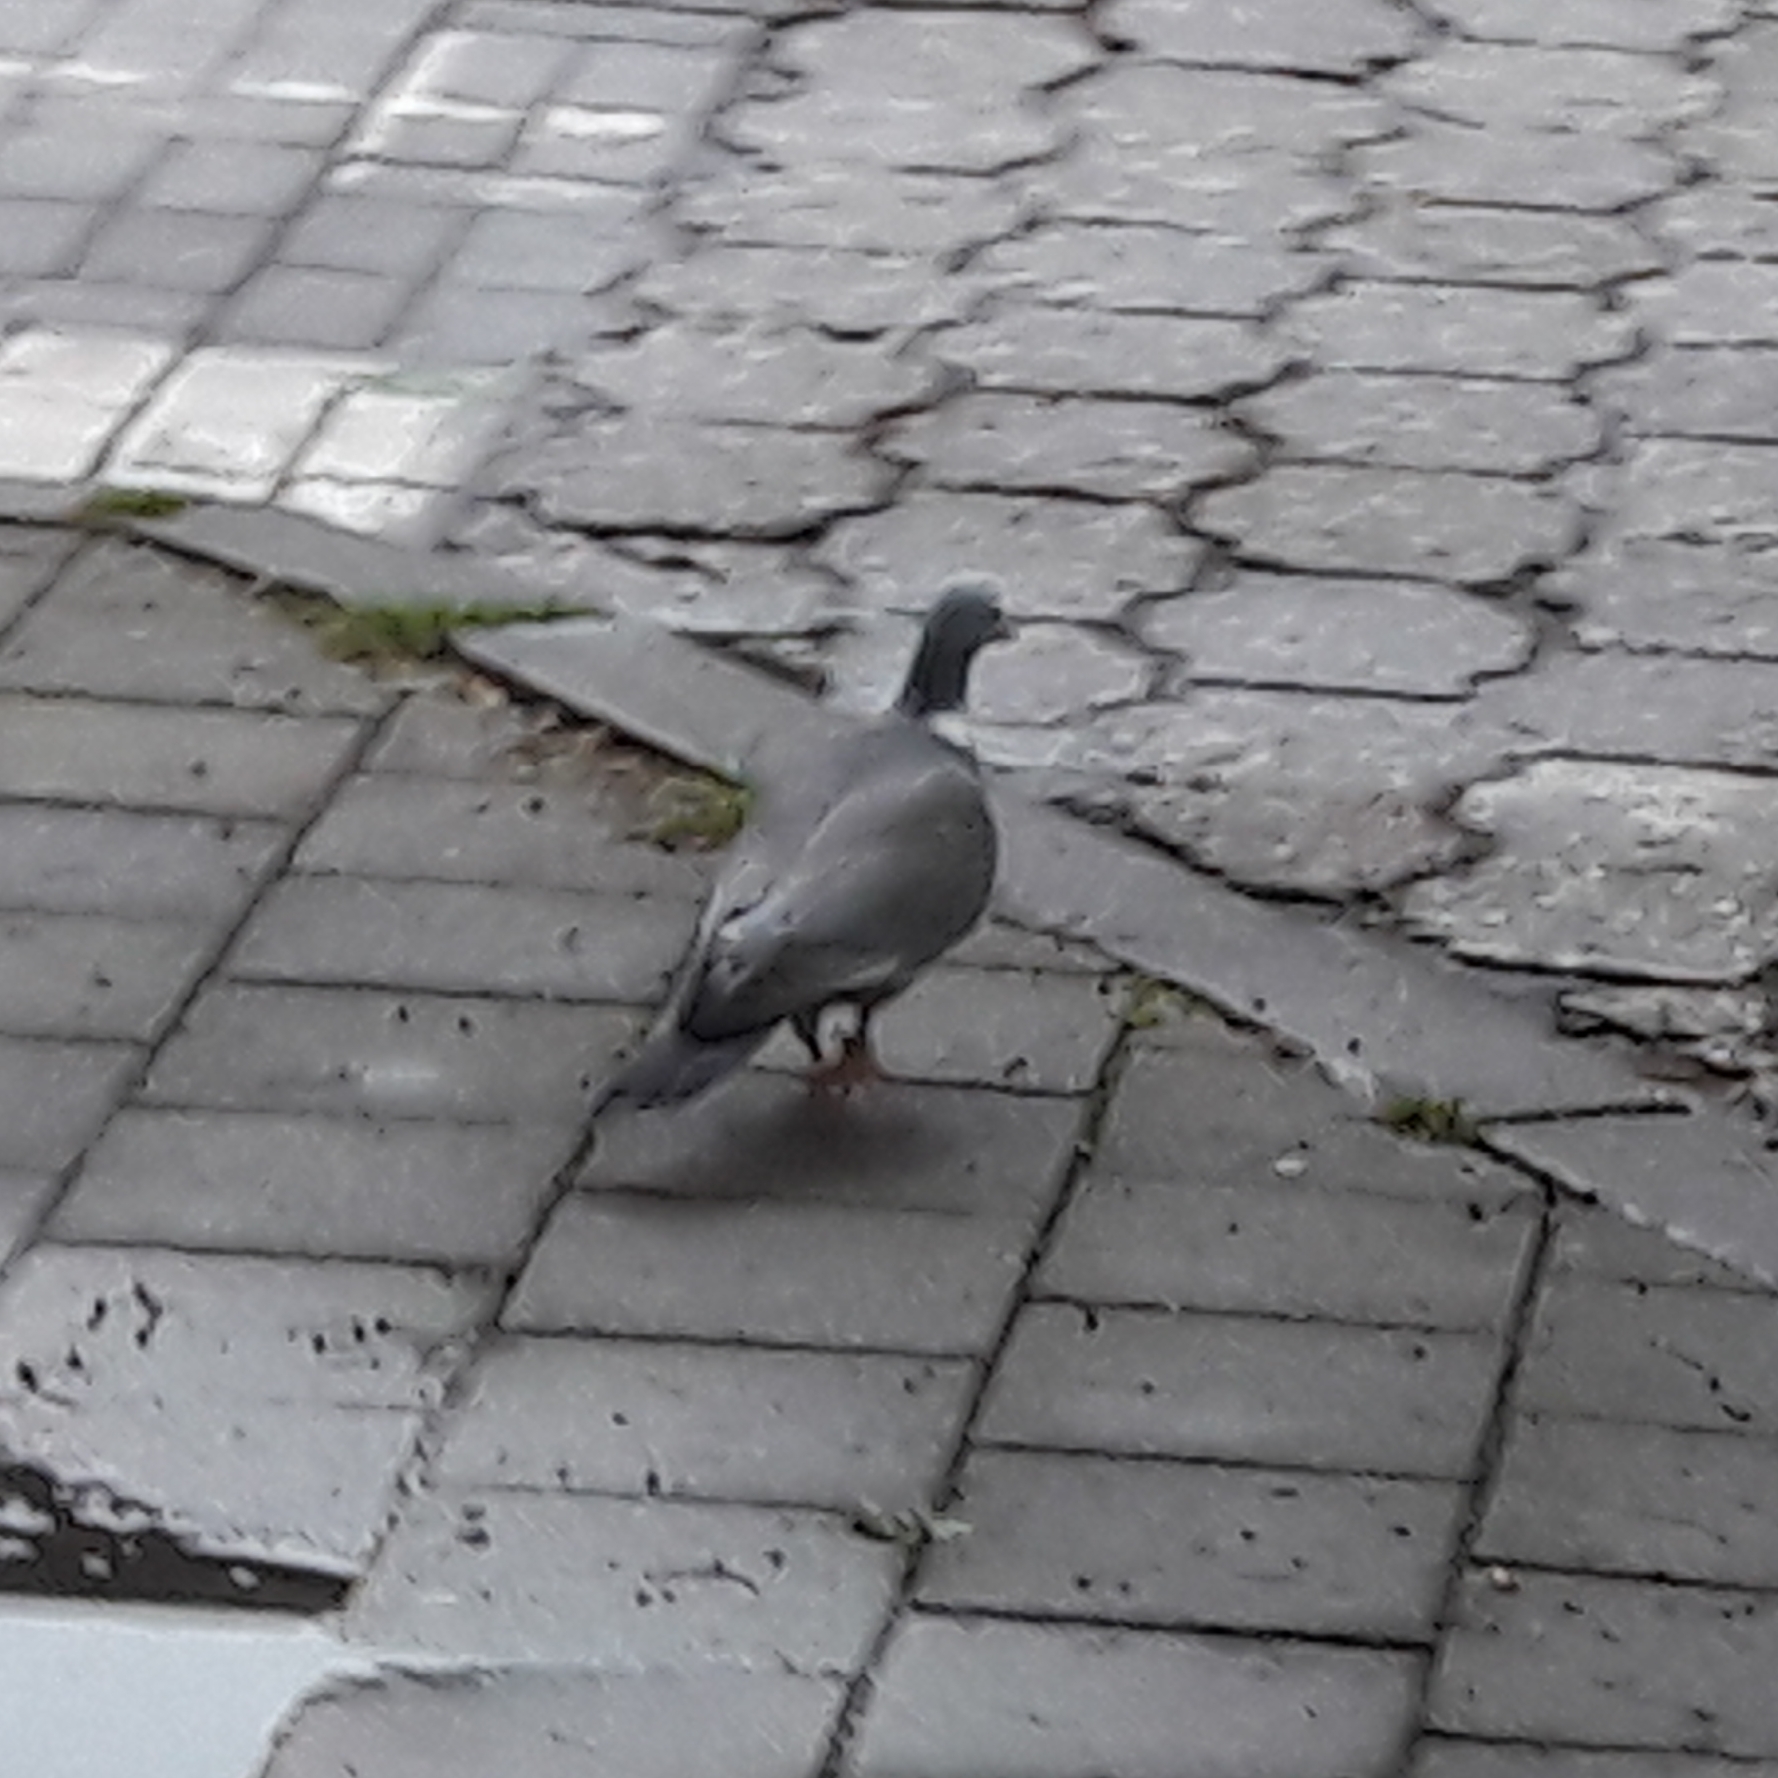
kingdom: Animalia
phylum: Chordata
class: Aves
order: Columbiformes
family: Columbidae
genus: Columba
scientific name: Columba palumbus
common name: Common wood pigeon
